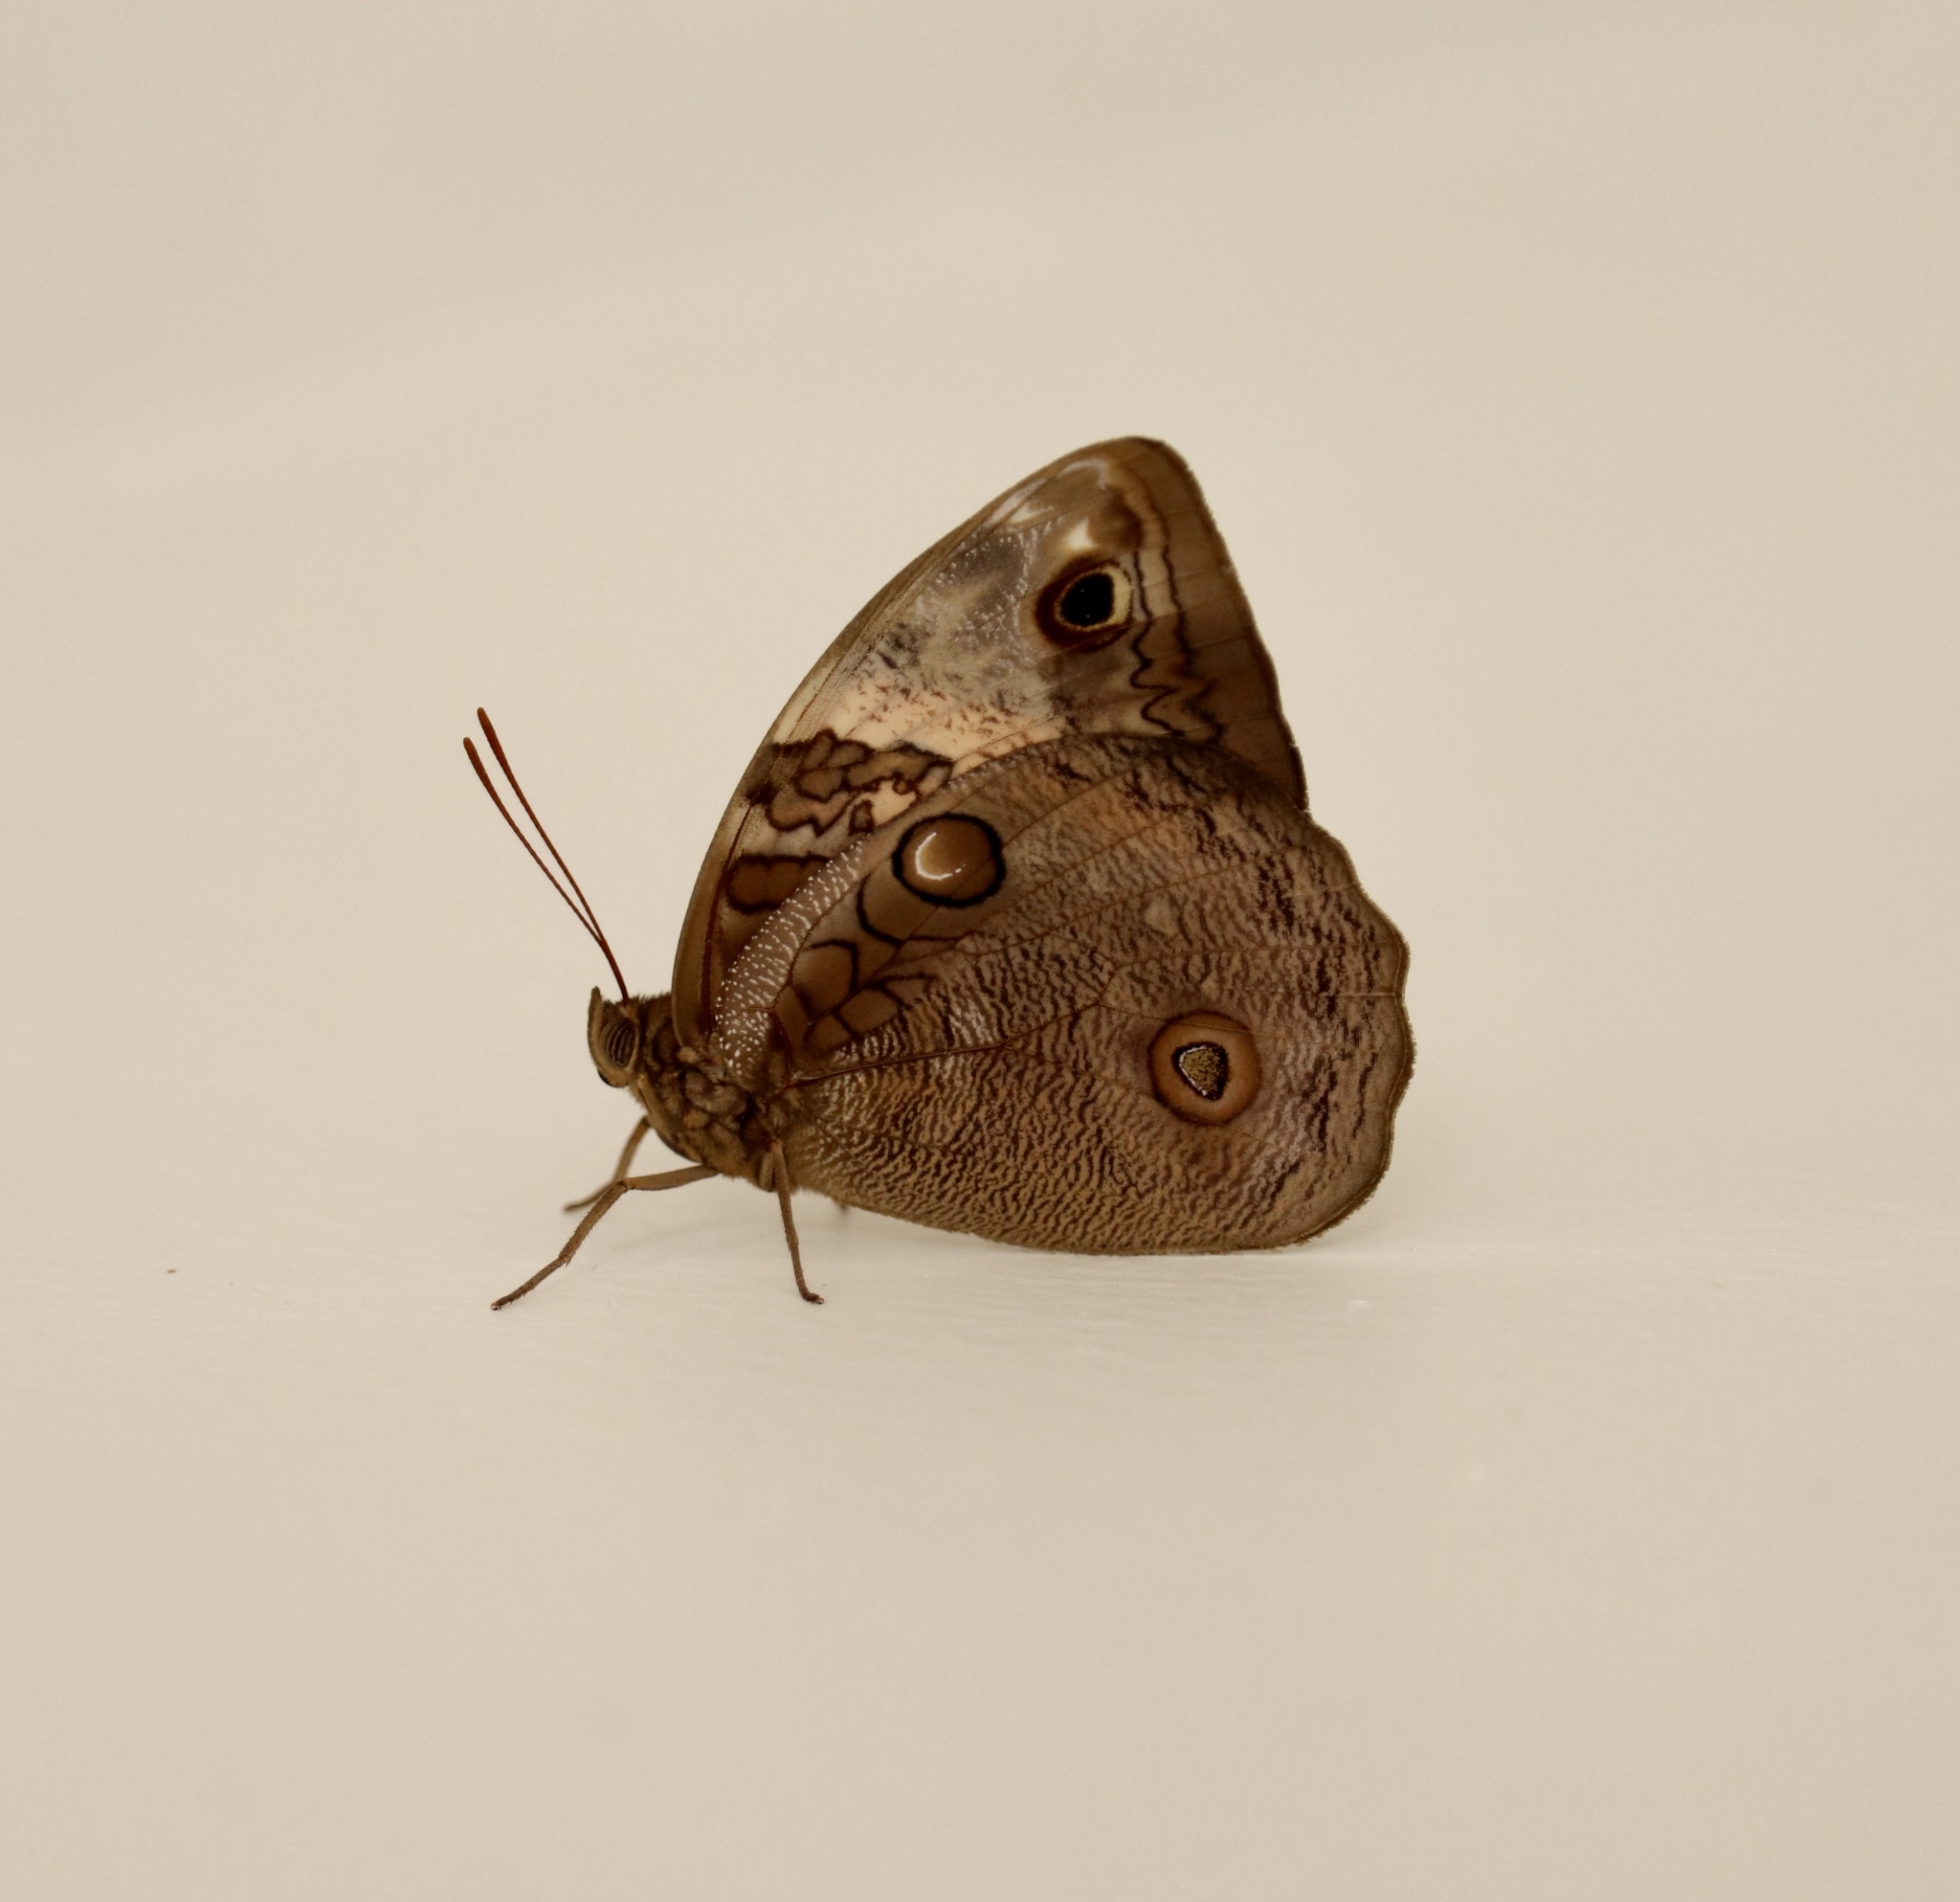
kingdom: Animalia
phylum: Arthropoda
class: Insecta
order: Lepidoptera
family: Nymphalidae
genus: Opsiphanes
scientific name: Opsiphanes fabricii
